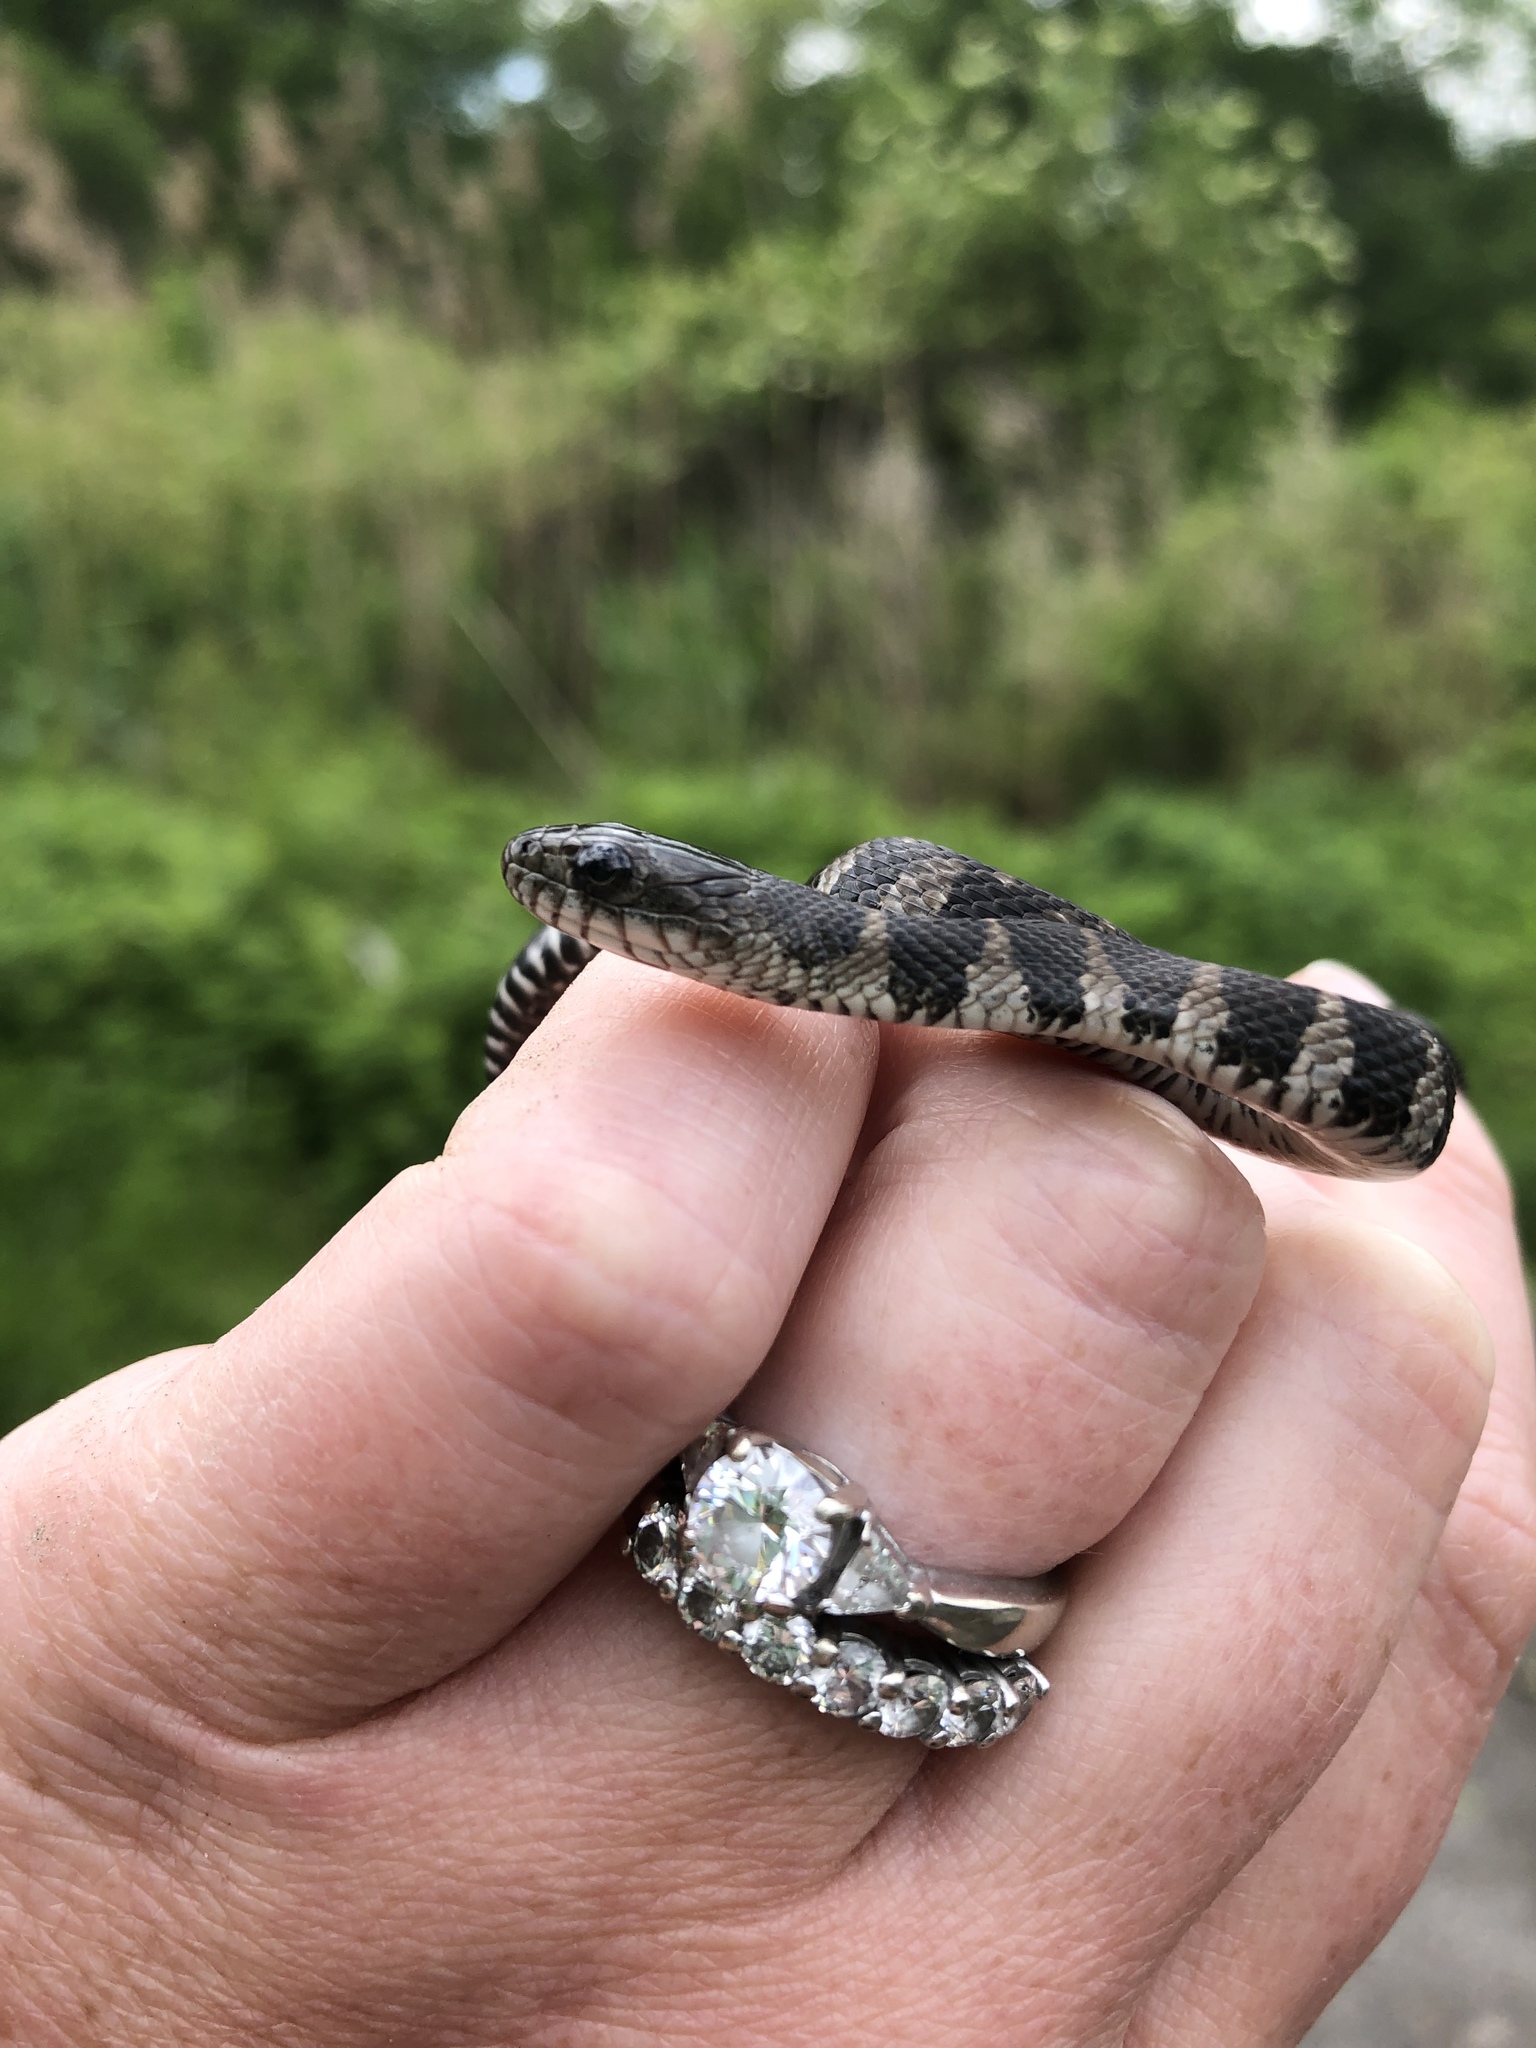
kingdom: Animalia
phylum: Chordata
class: Squamata
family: Colubridae
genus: Nerodia
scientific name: Nerodia sipedon
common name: Northern water snake
